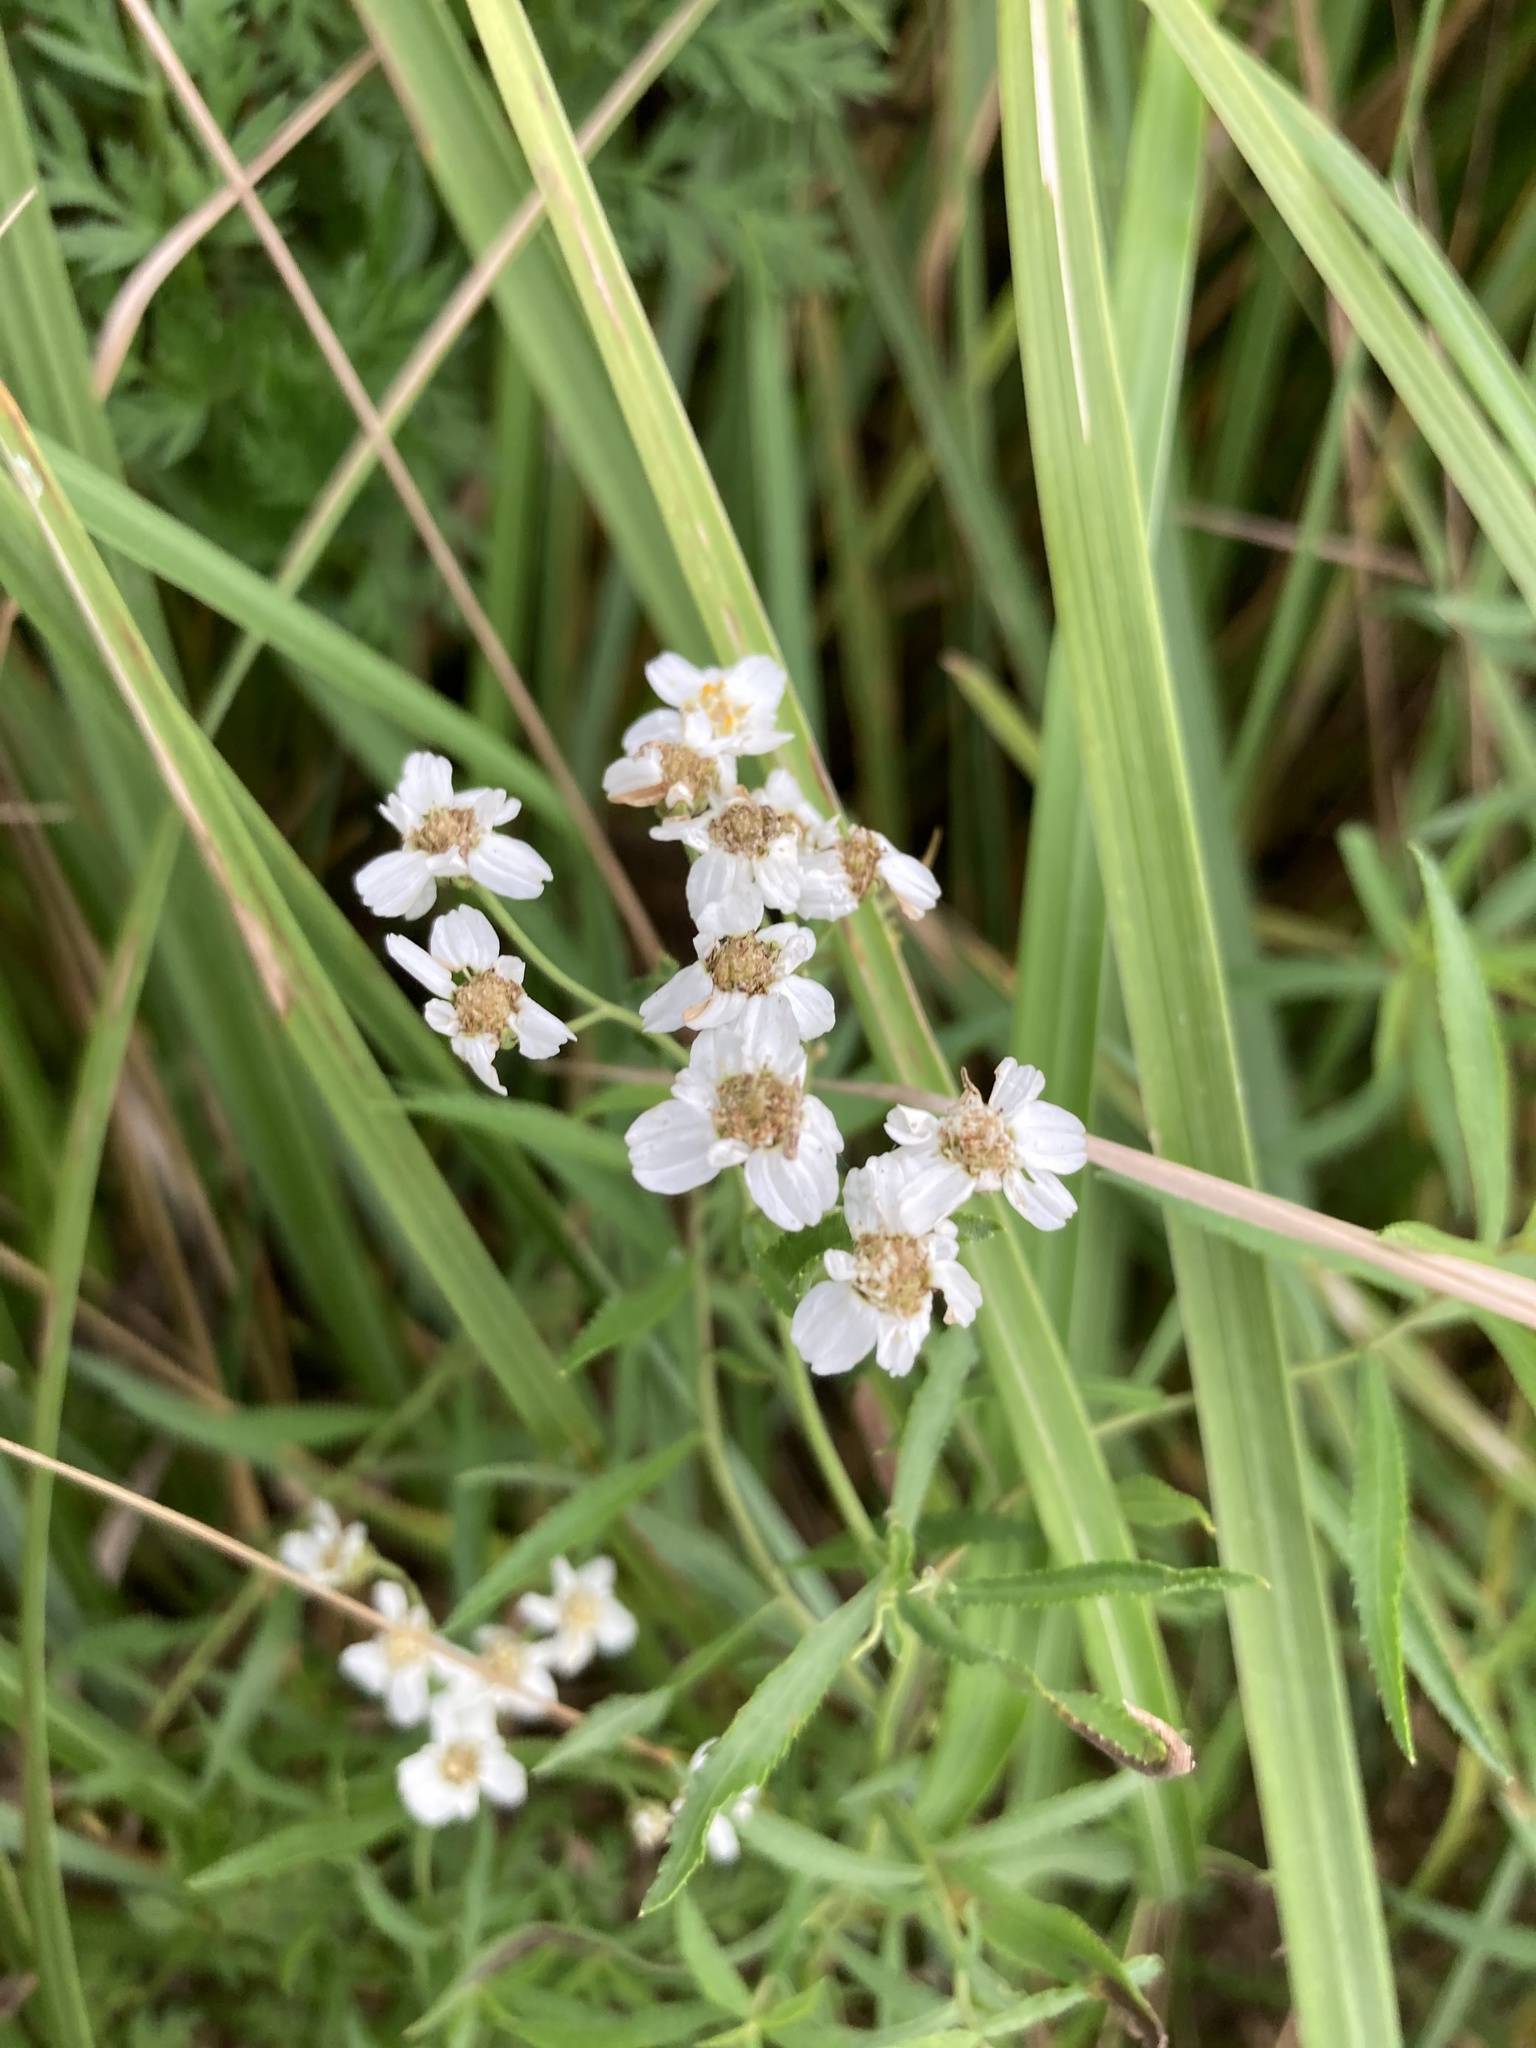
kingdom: Plantae
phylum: Tracheophyta
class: Magnoliopsida
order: Asterales
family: Asteraceae
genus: Achillea
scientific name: Achillea salicifolia
